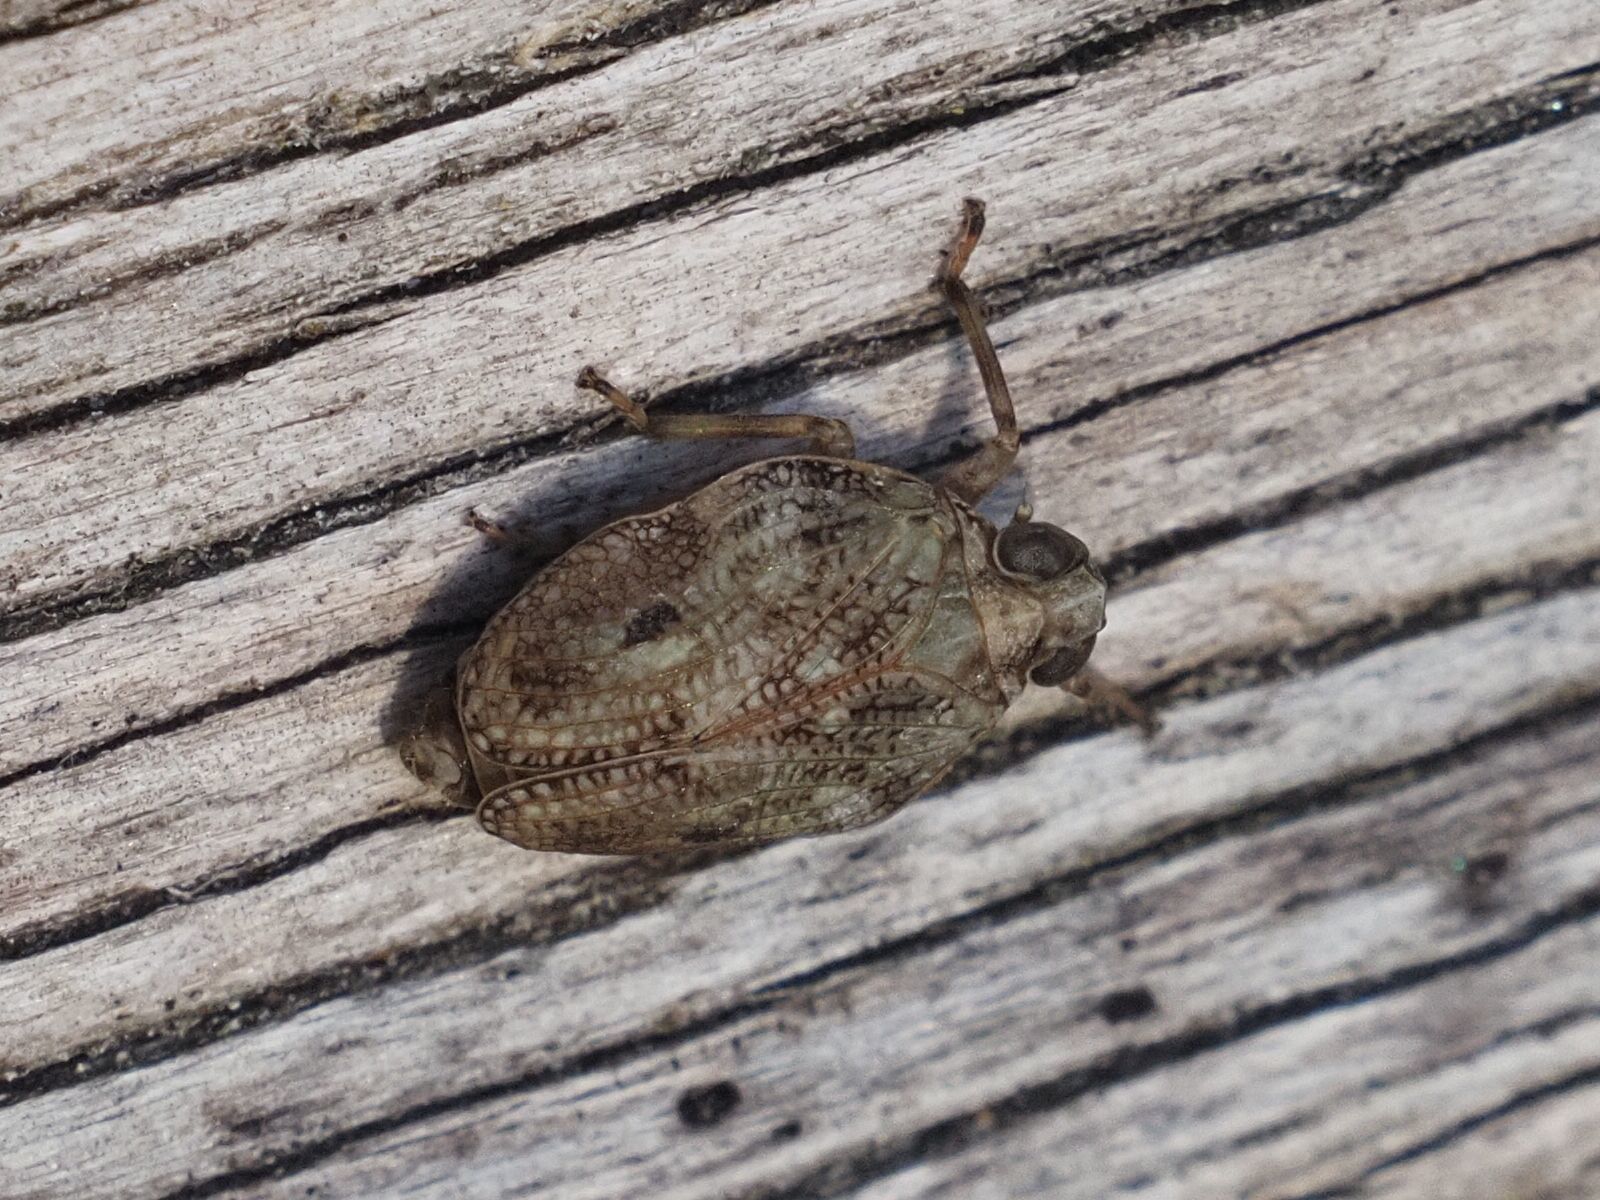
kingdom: Animalia
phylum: Arthropoda
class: Insecta
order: Hemiptera
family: Issidae
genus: Issus
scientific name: Issus coleoptratus
